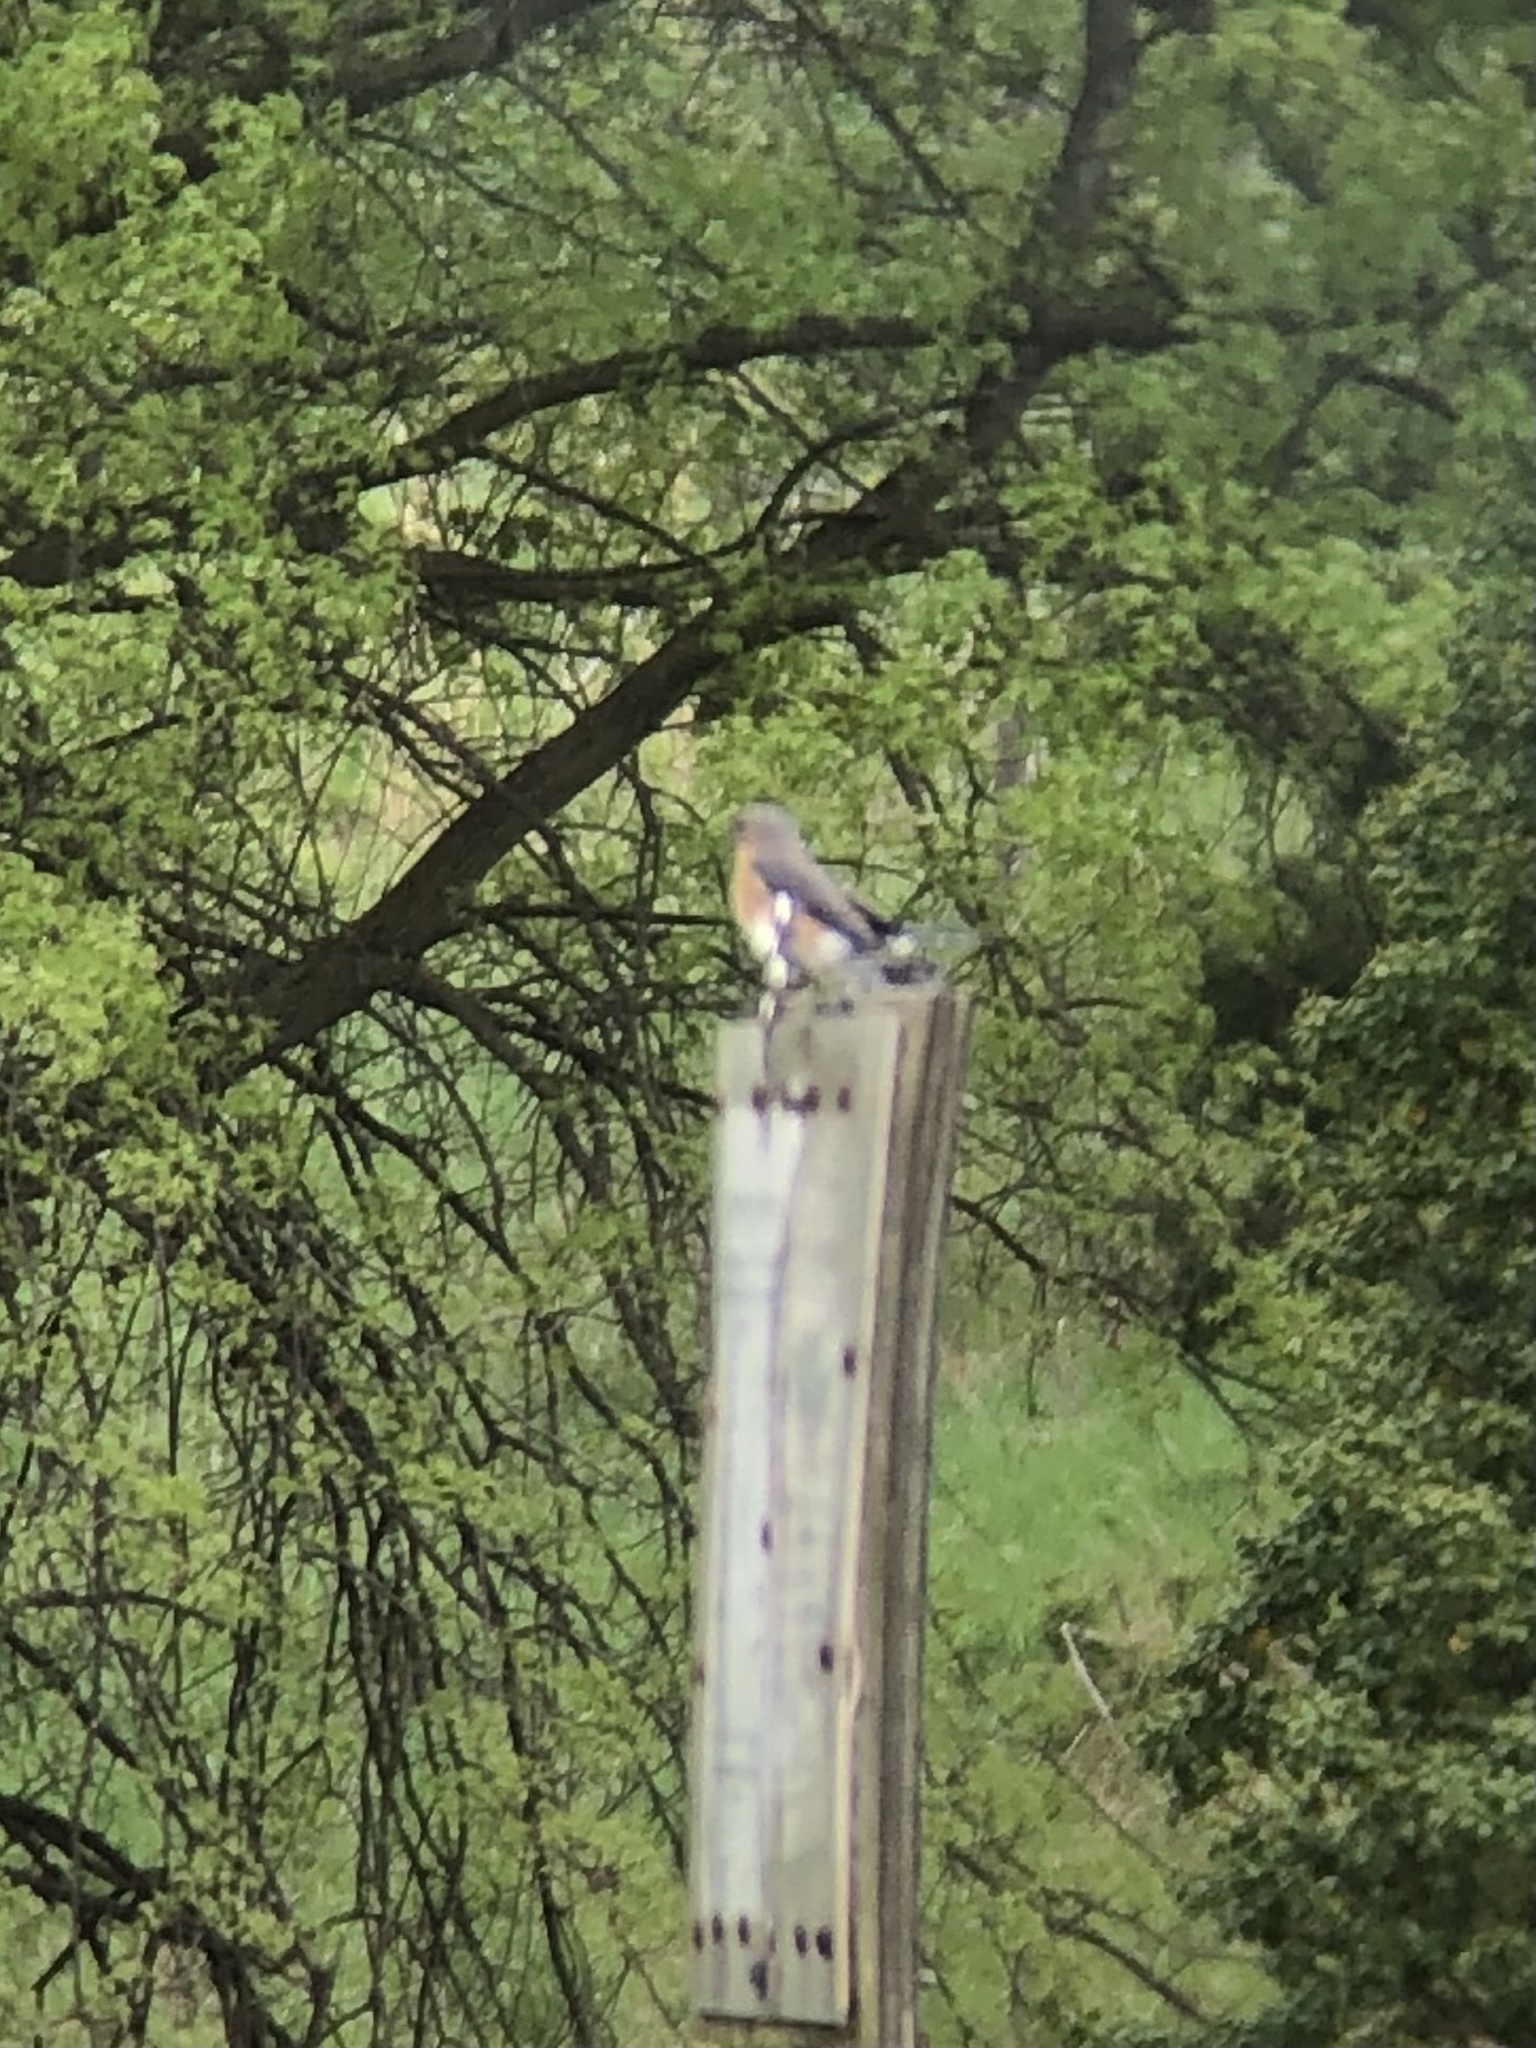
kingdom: Animalia
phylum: Chordata
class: Aves
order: Passeriformes
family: Turdidae
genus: Sialia
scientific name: Sialia sialis
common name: Eastern bluebird
